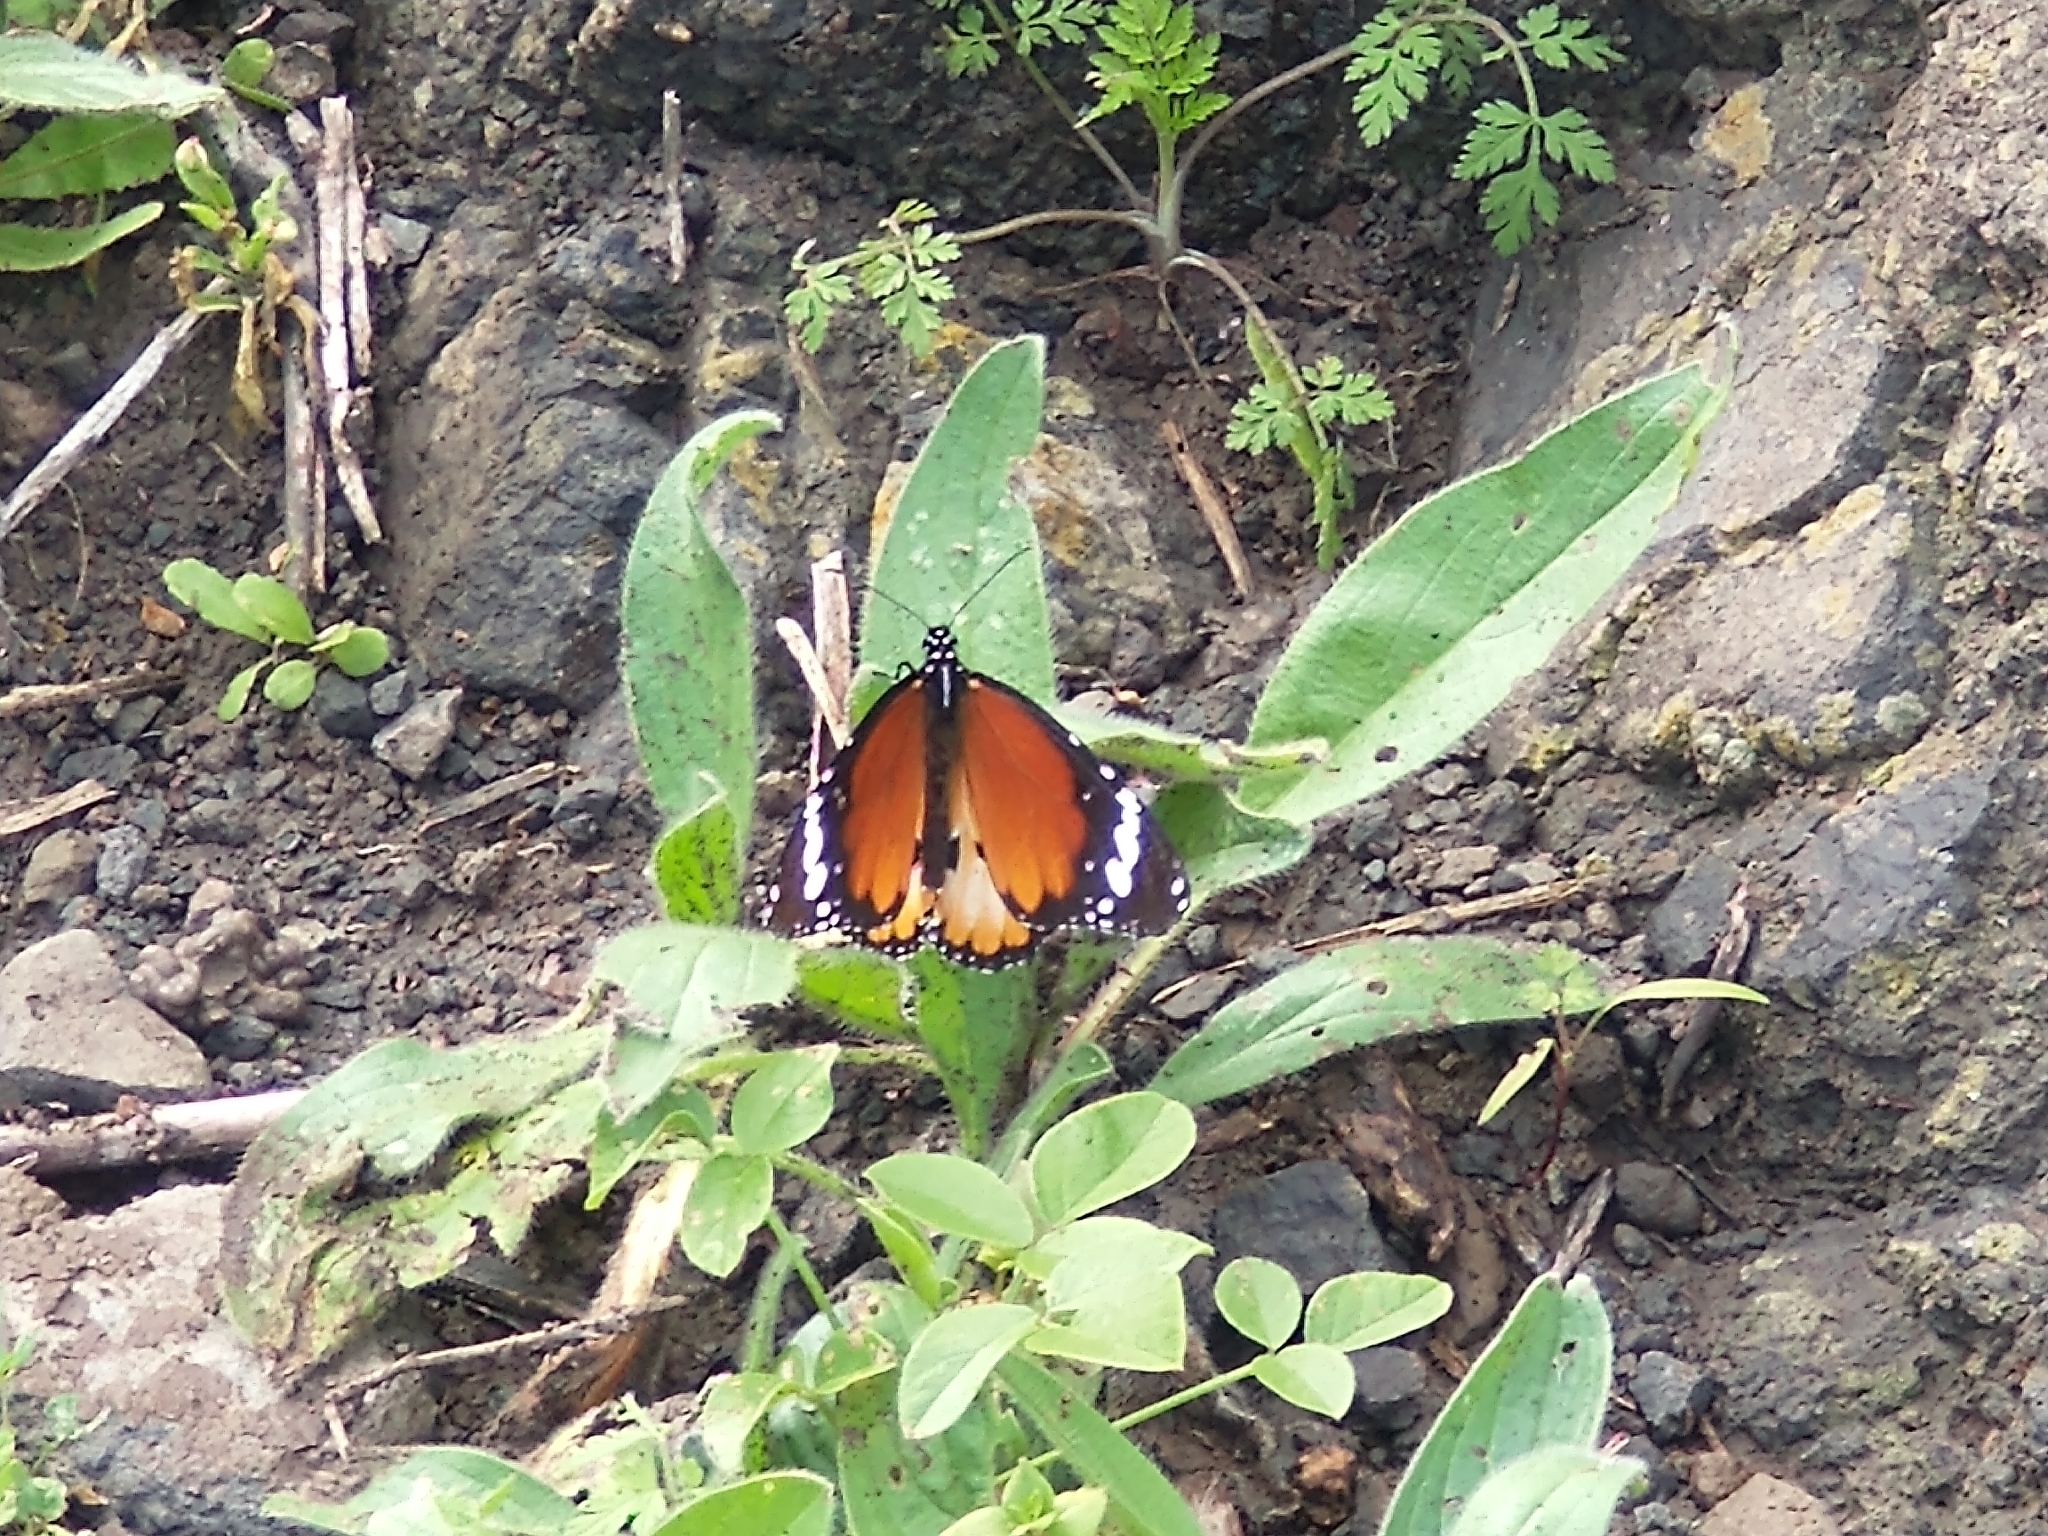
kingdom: Animalia
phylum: Arthropoda
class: Insecta
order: Lepidoptera
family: Nymphalidae
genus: Danaus
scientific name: Danaus chrysippus
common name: Plain tiger
